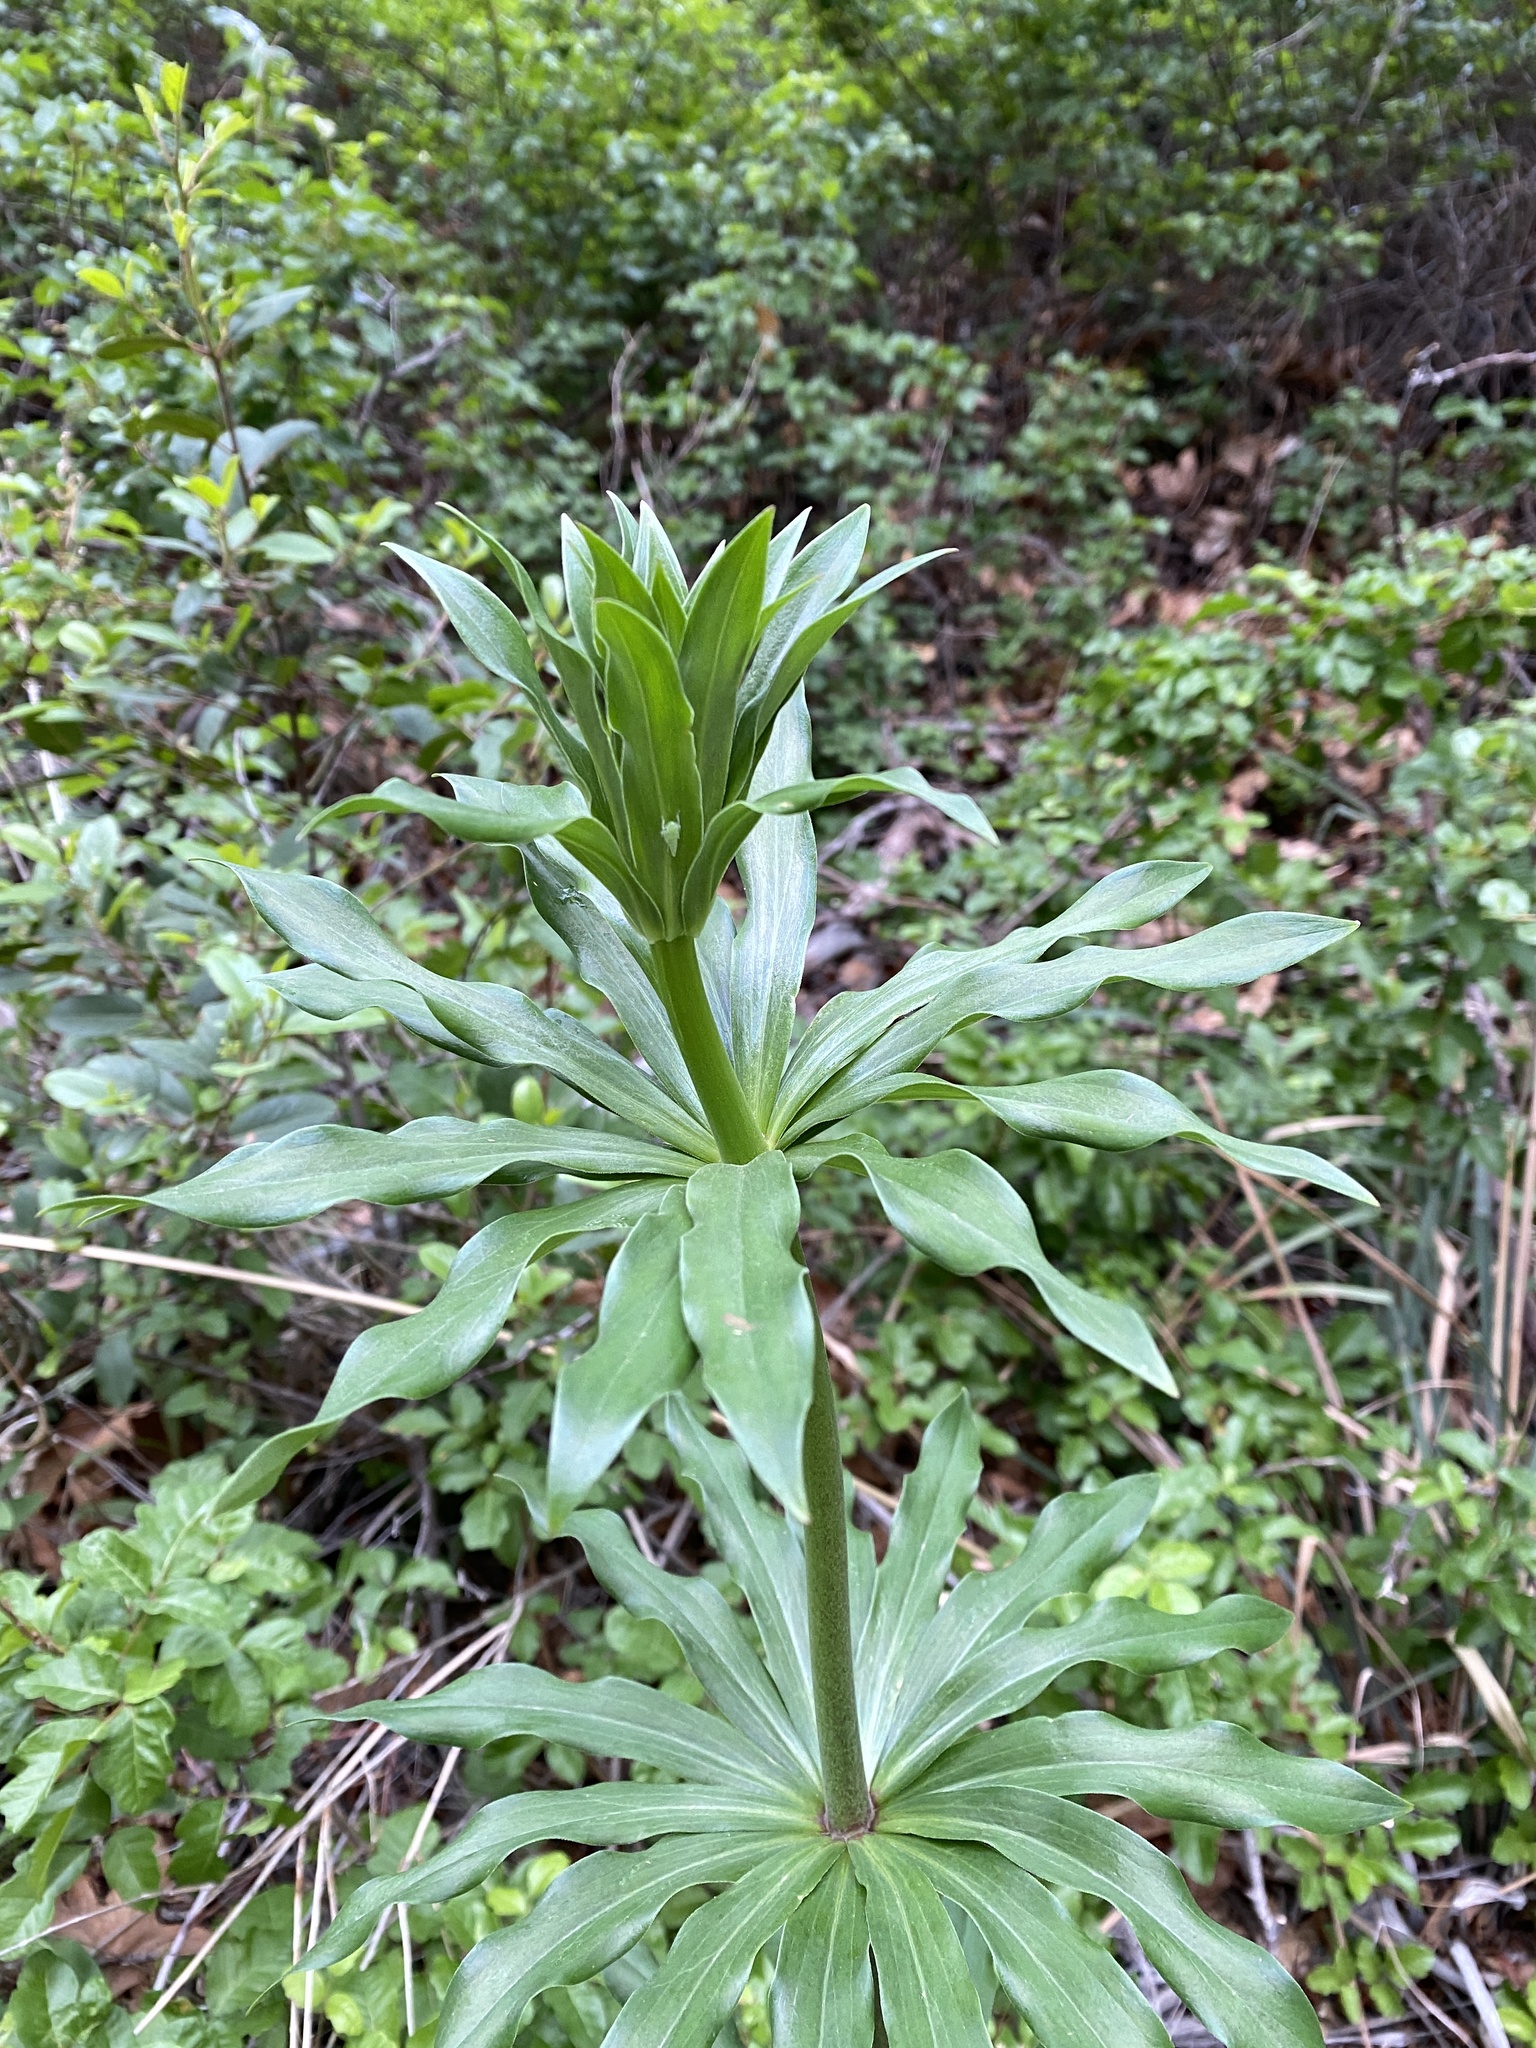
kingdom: Plantae
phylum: Tracheophyta
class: Liliopsida
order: Liliales
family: Liliaceae
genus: Lilium
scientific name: Lilium humboldtii
